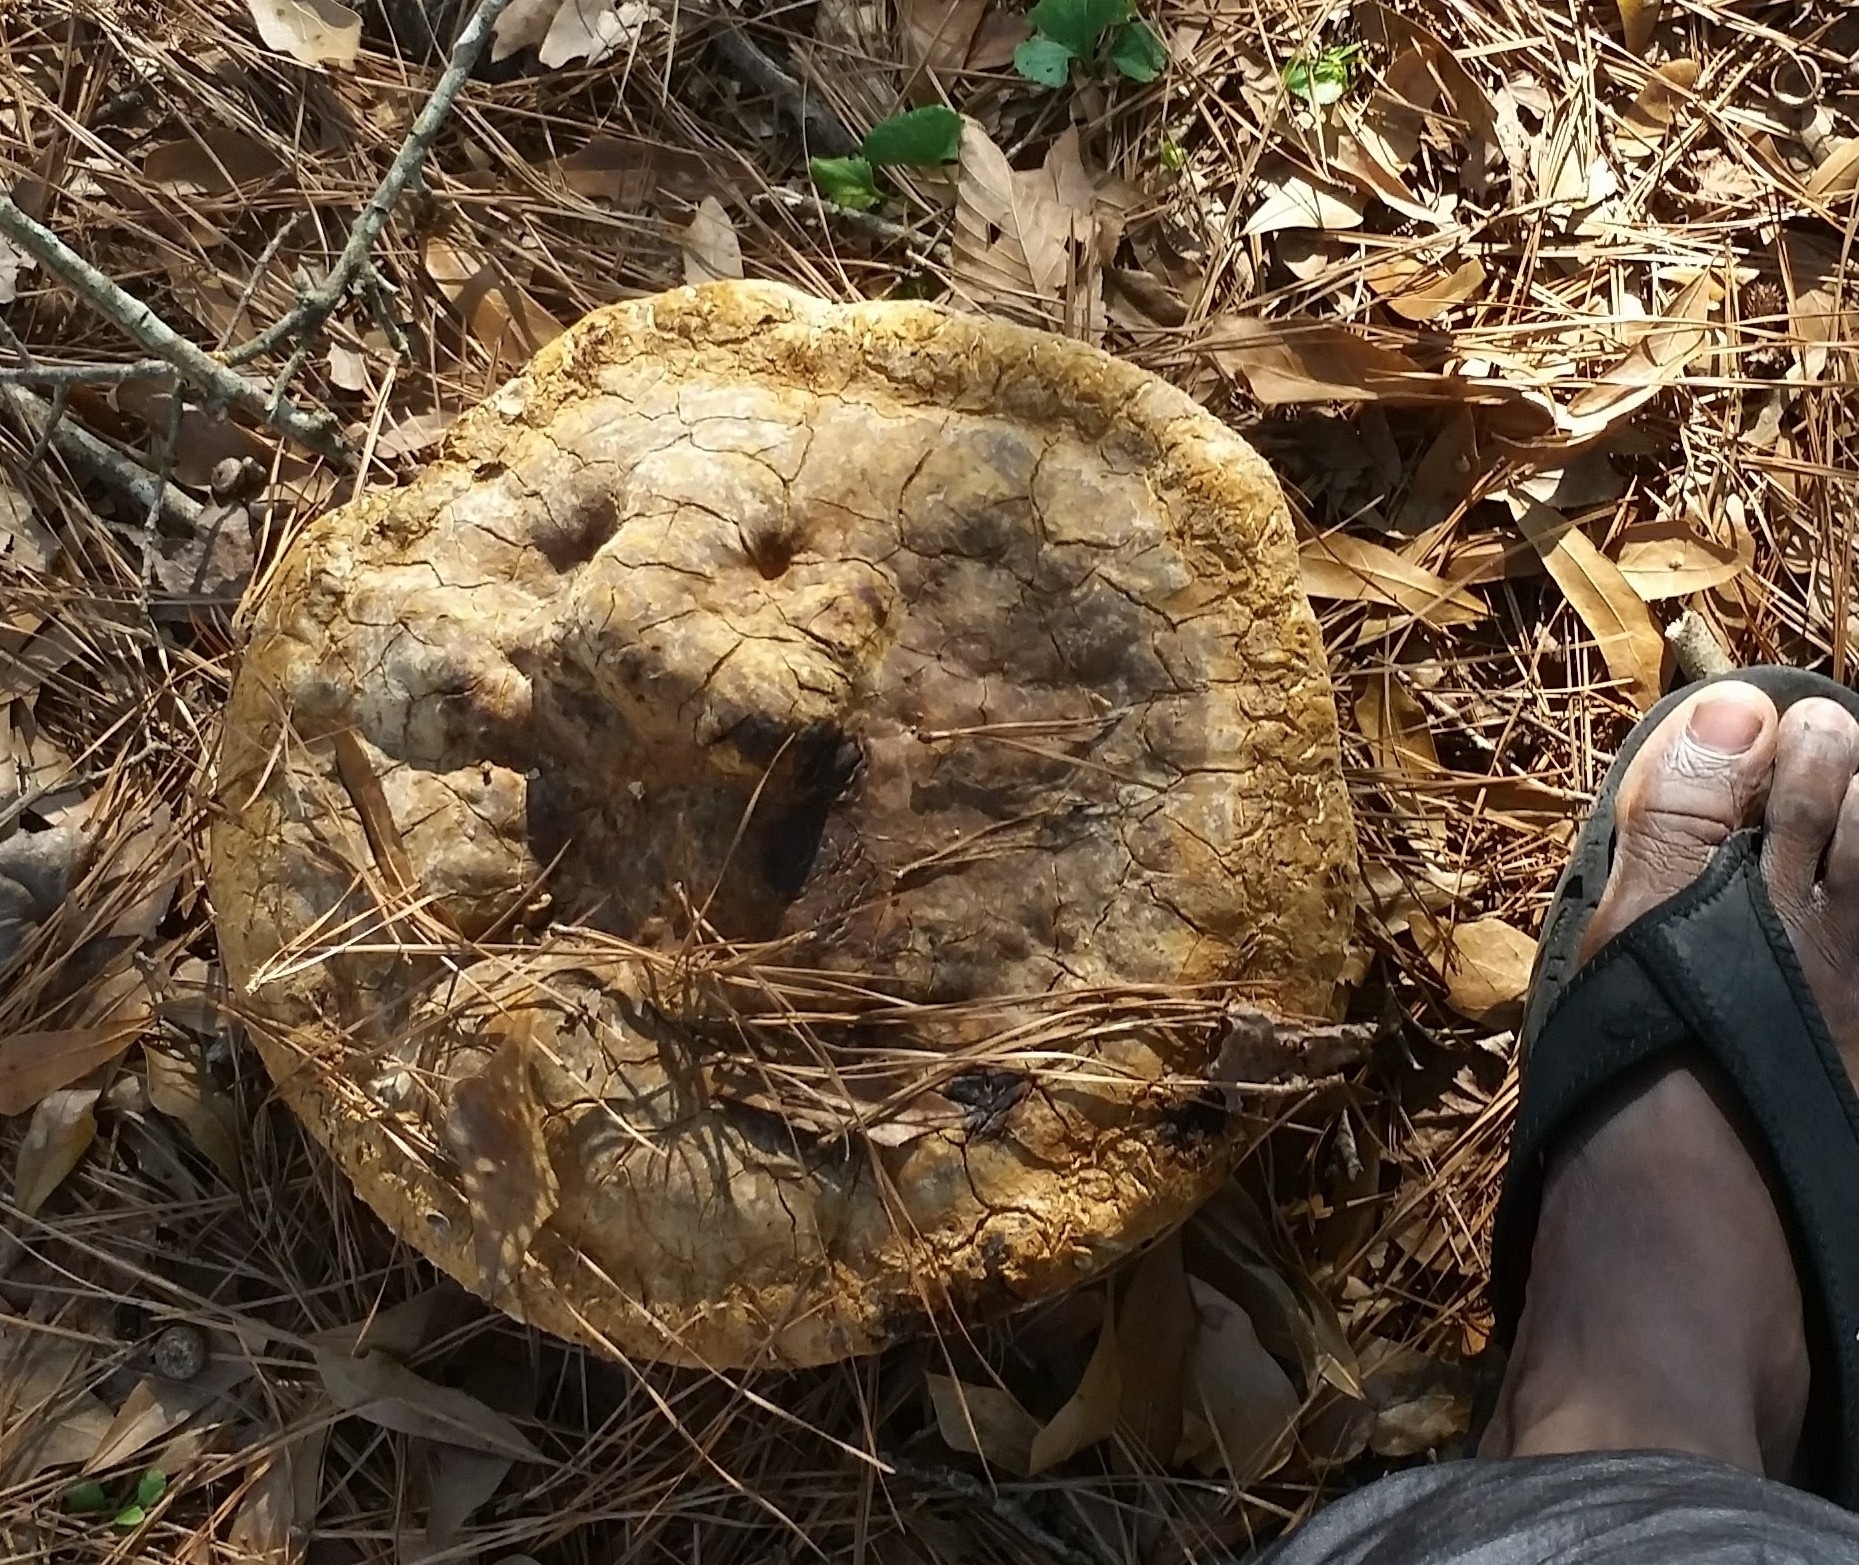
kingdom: Fungi
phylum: Basidiomycota
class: Agaricomycetes
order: Hymenochaetales
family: Hymenochaetaceae
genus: Pseudoinonotus
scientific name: Pseudoinonotus dryadeus
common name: Oak bracket
